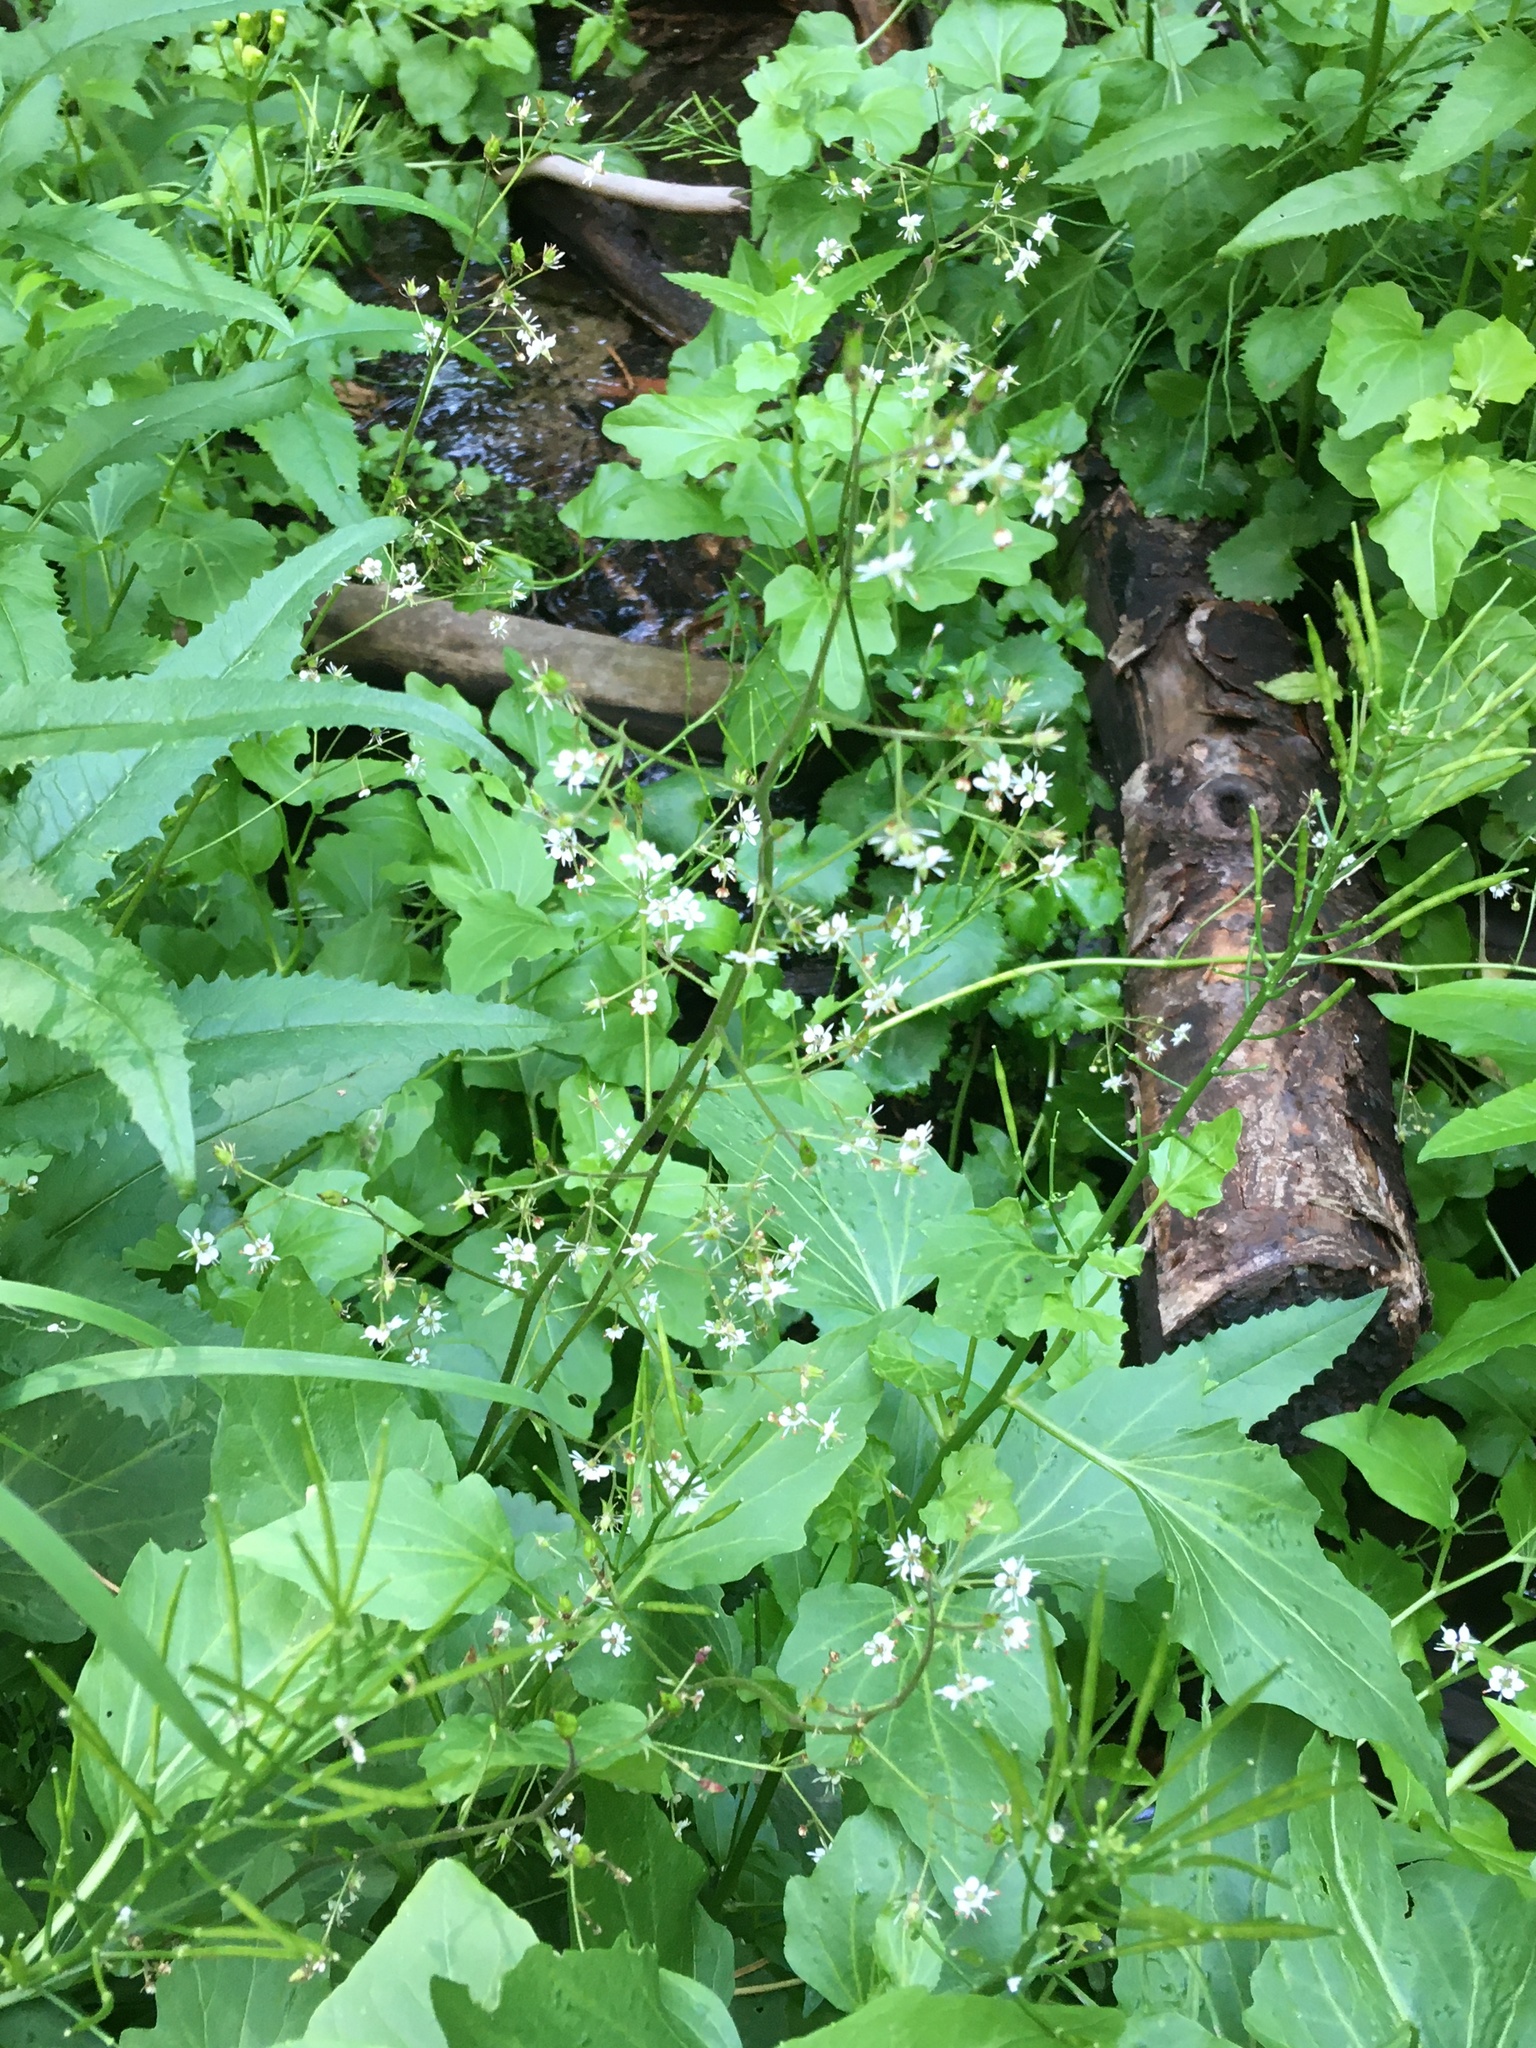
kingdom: Plantae
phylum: Tracheophyta
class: Magnoliopsida
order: Saxifragales
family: Saxifragaceae
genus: Micranthes
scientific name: Micranthes odontoloma
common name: Brook saxifrage
